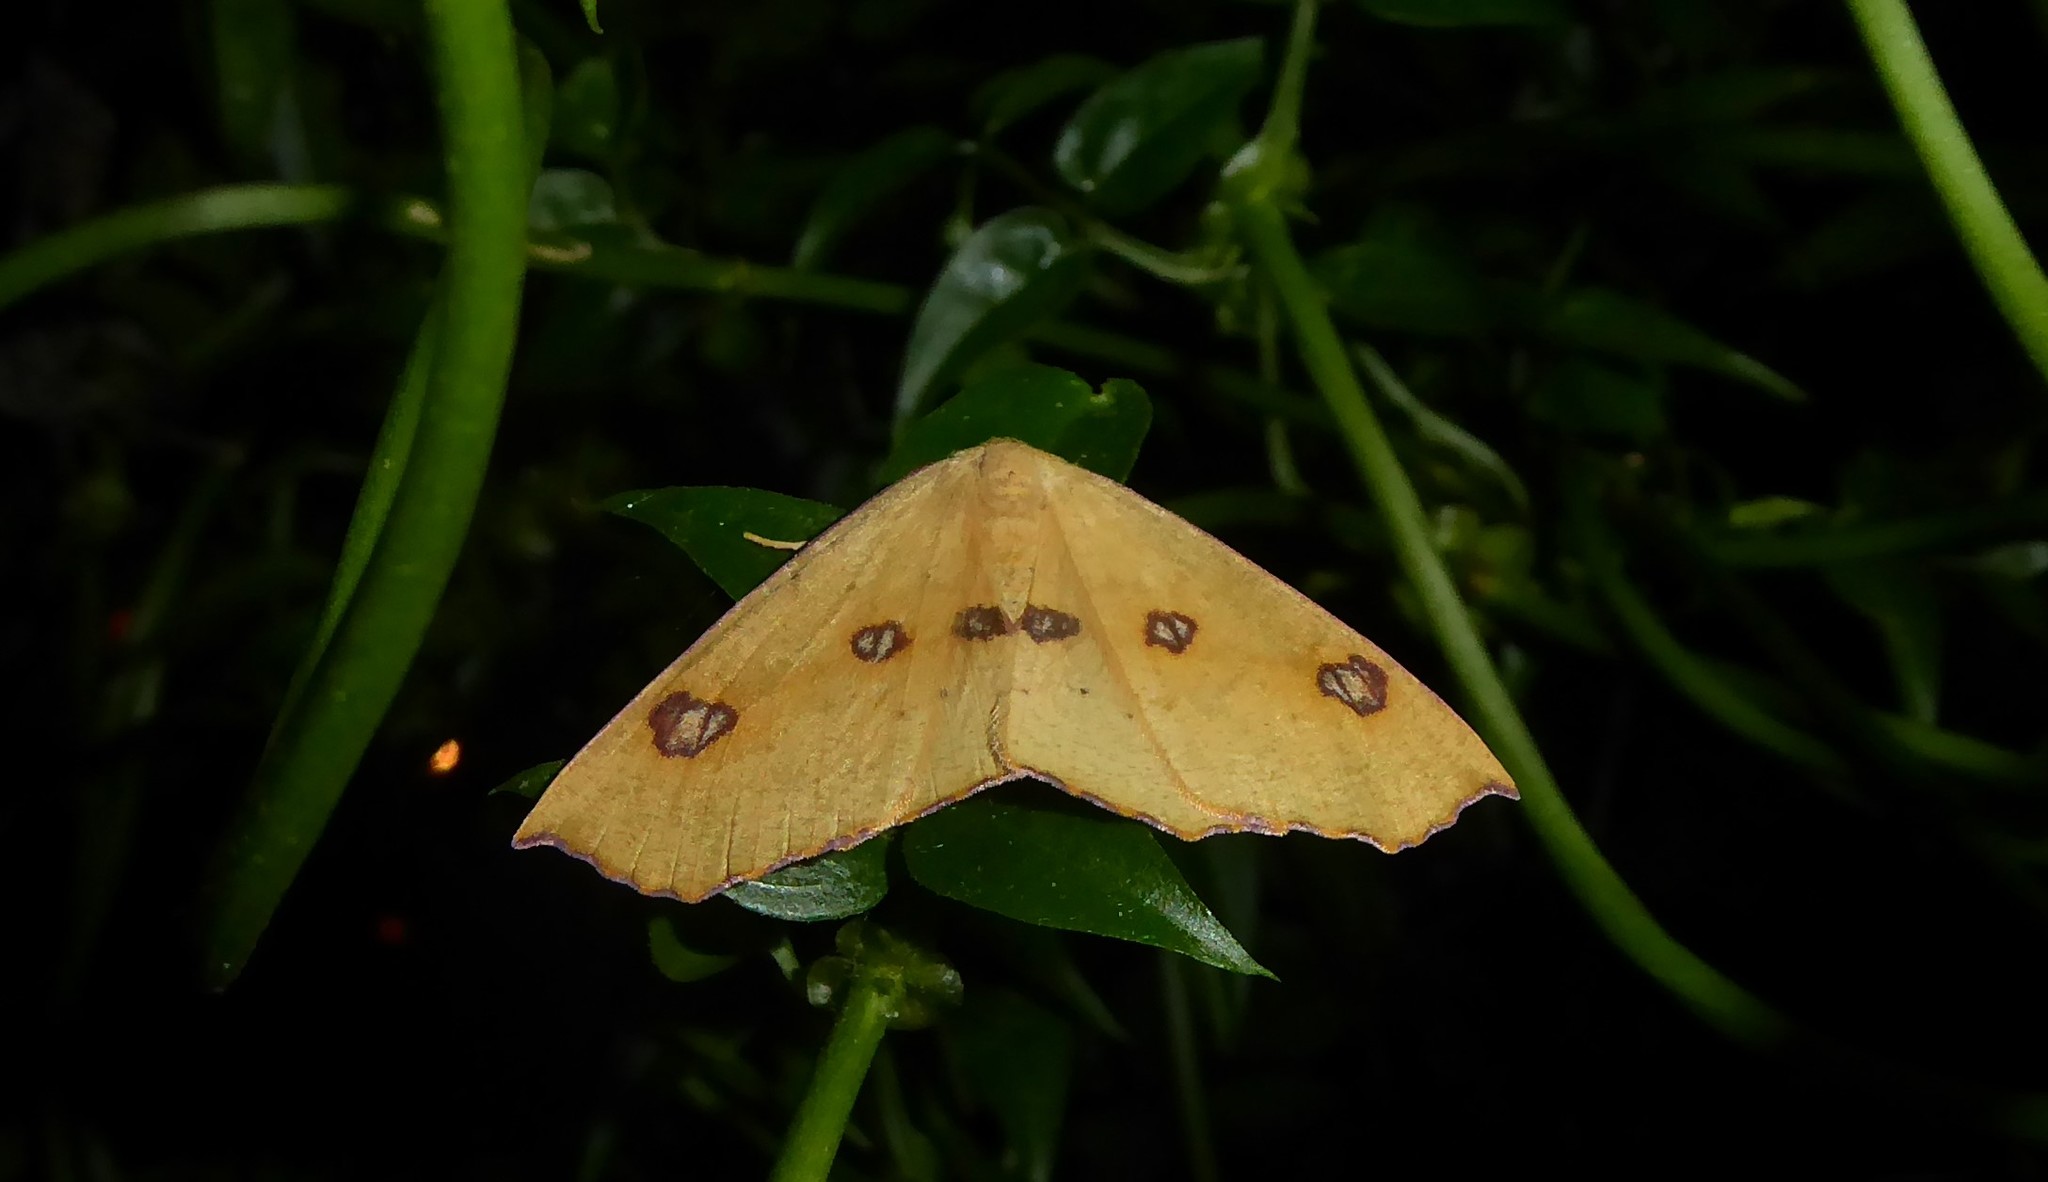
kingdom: Animalia
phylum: Arthropoda
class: Insecta
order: Lepidoptera
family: Geometridae
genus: Xyridacma
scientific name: Xyridacma alectoraria
